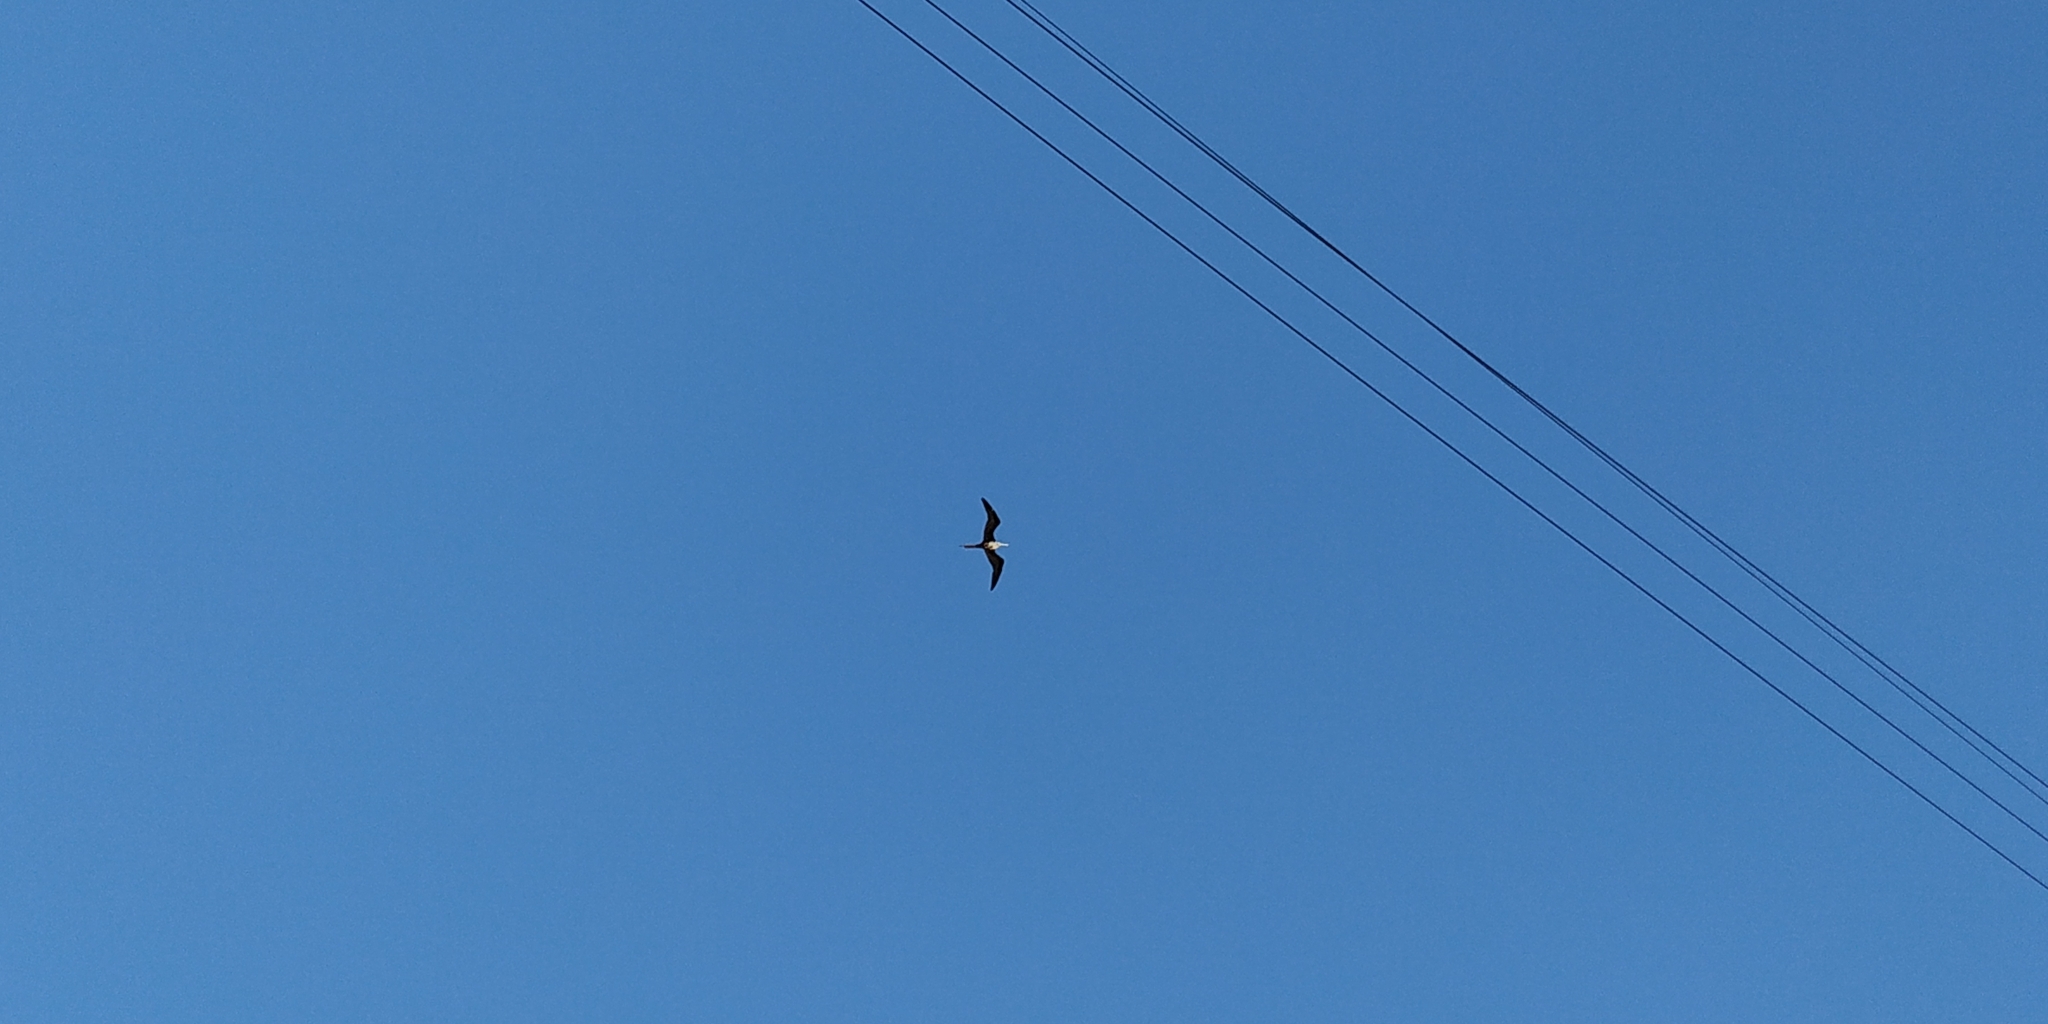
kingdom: Animalia
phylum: Chordata
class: Aves
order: Suliformes
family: Fregatidae
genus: Fregata
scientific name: Fregata magnificens
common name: Magnificent frigatebird
